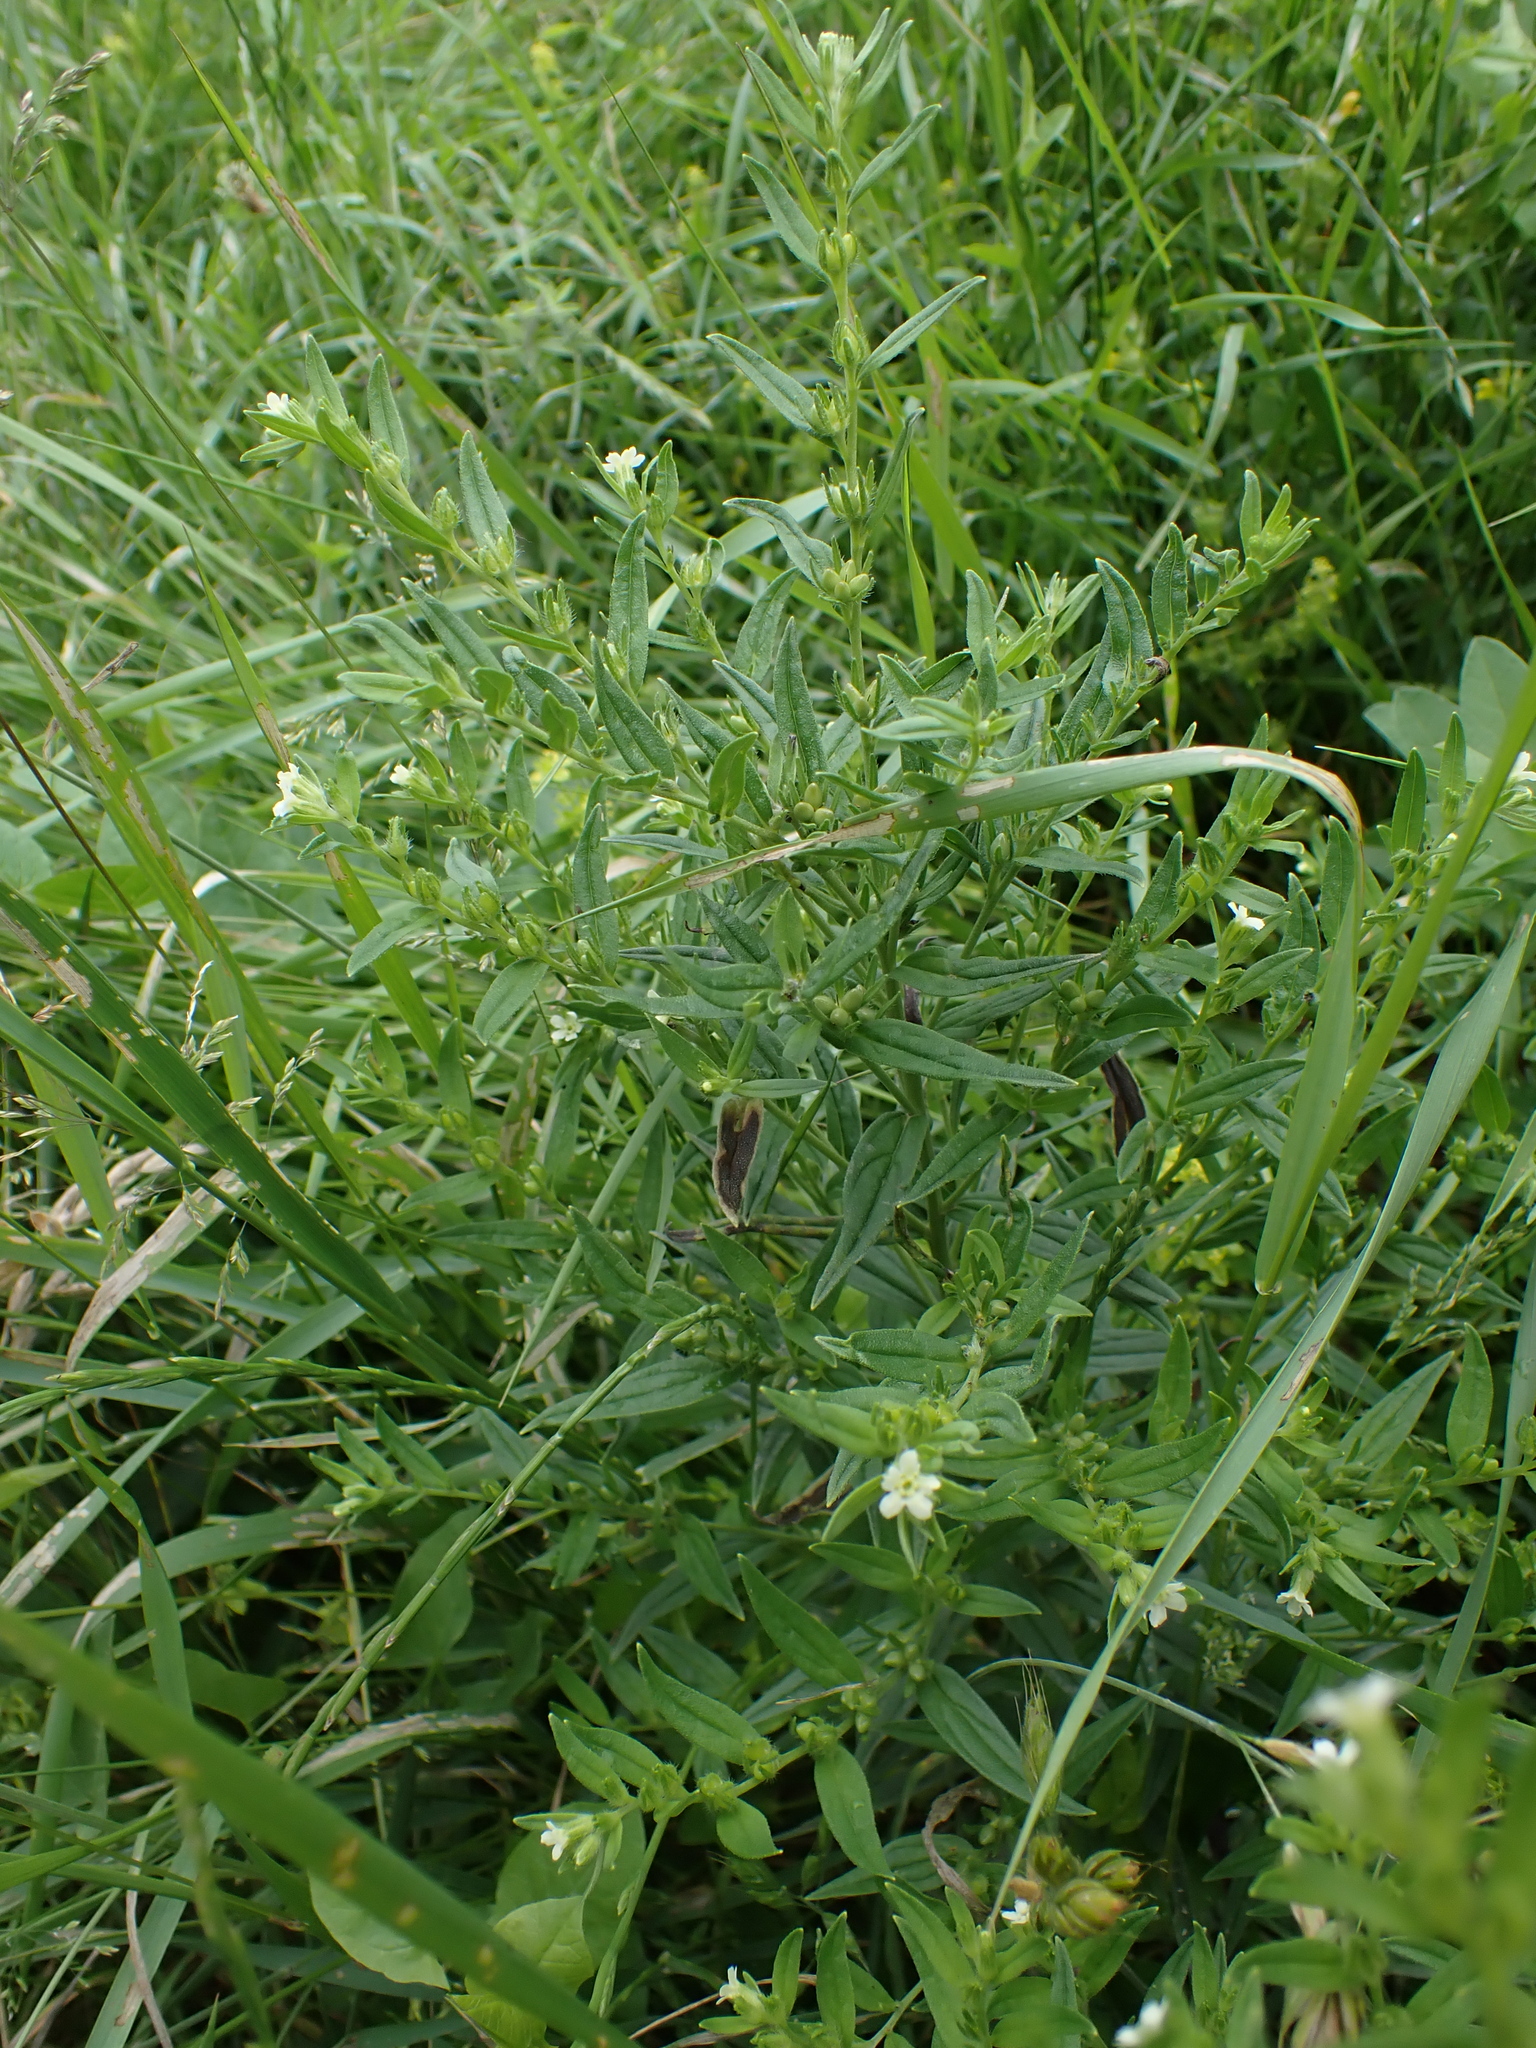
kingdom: Plantae
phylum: Tracheophyta
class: Magnoliopsida
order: Boraginales
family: Boraginaceae
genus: Lithospermum
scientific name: Lithospermum officinale
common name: Common gromwell
